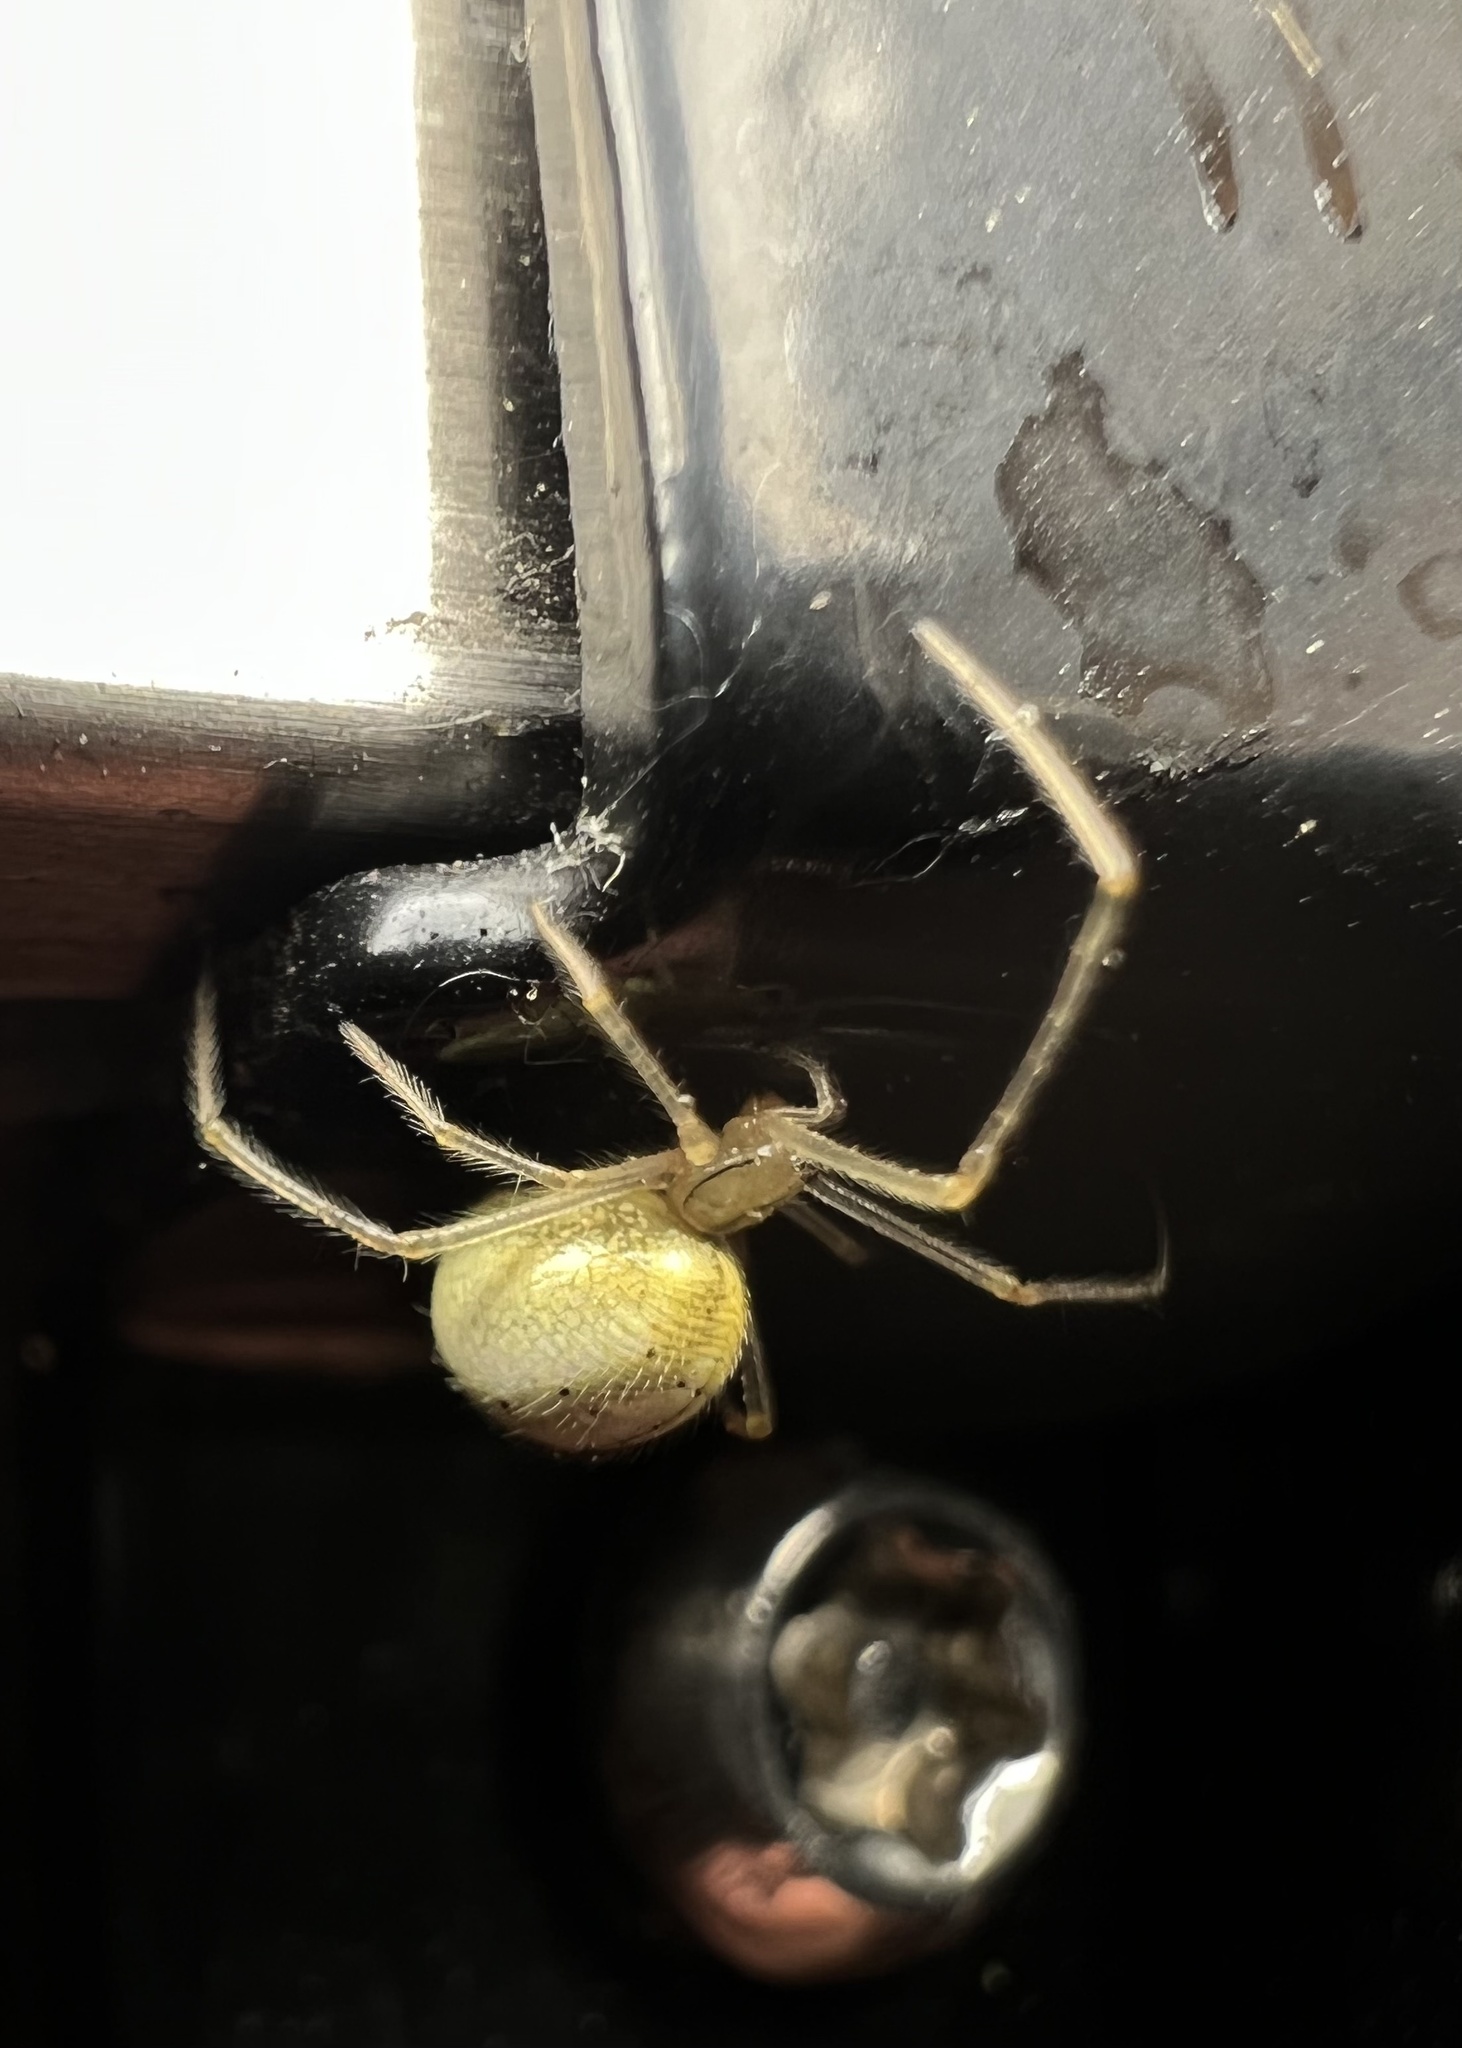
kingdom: Animalia
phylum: Arthropoda
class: Arachnida
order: Araneae
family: Theridiidae
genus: Enoplognatha
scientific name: Enoplognatha ovata
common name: Common candy-striped spider
